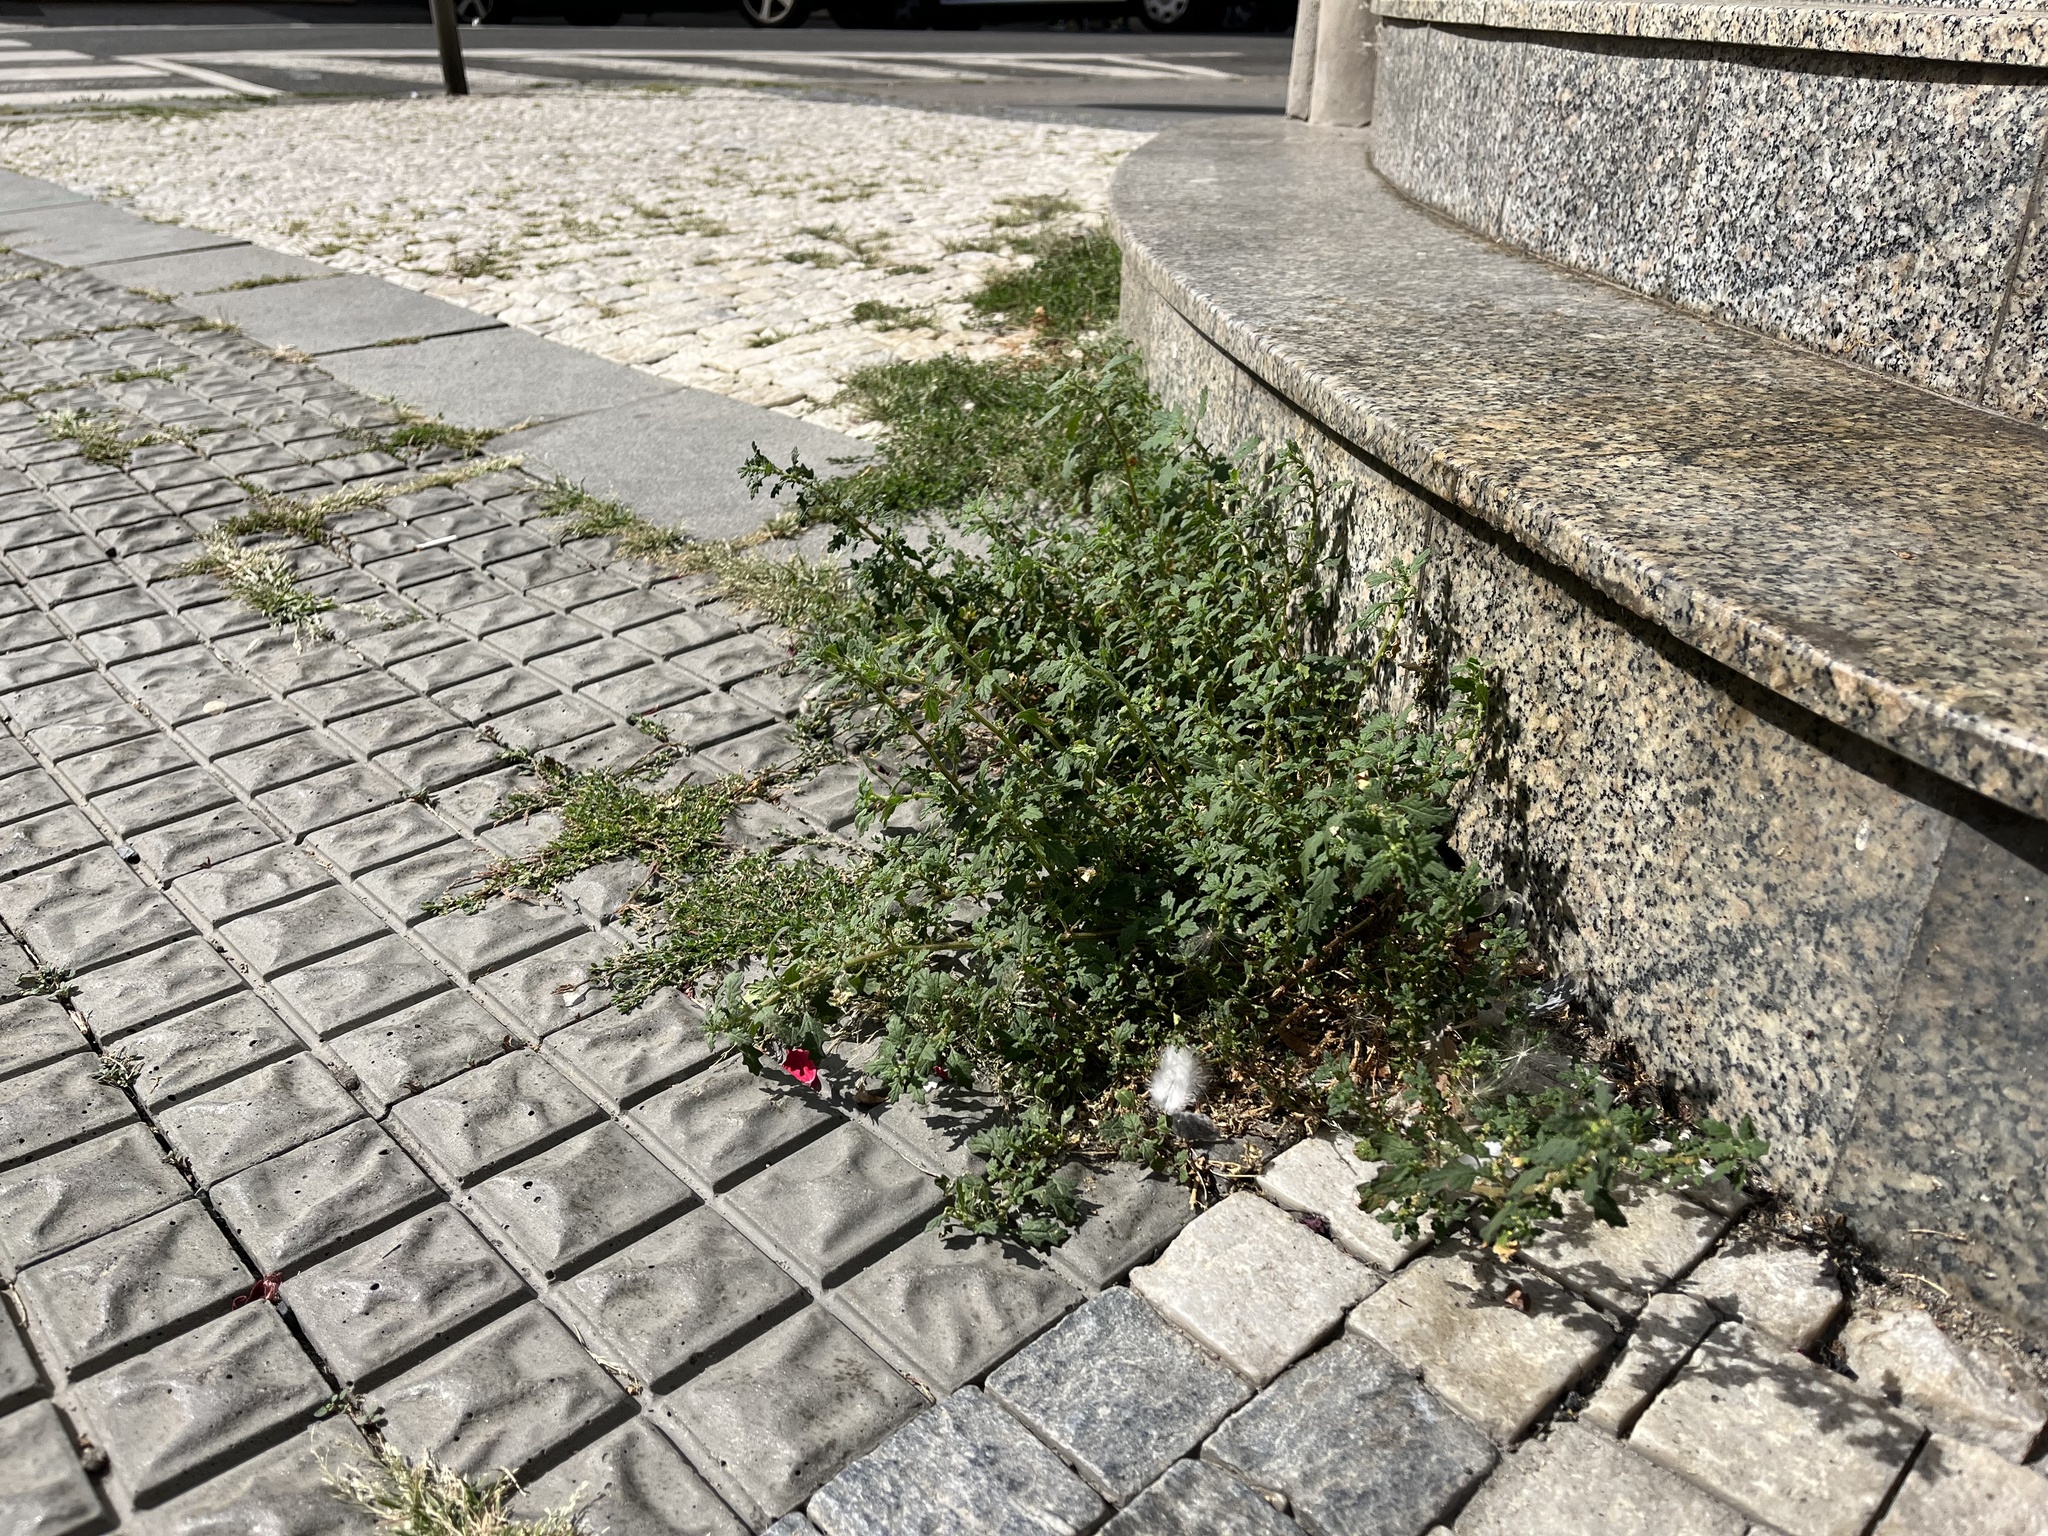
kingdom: Plantae
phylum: Tracheophyta
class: Magnoliopsida
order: Caryophyllales
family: Amaranthaceae
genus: Dysphania
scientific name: Dysphania pumilio
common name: Clammy goosefoot
